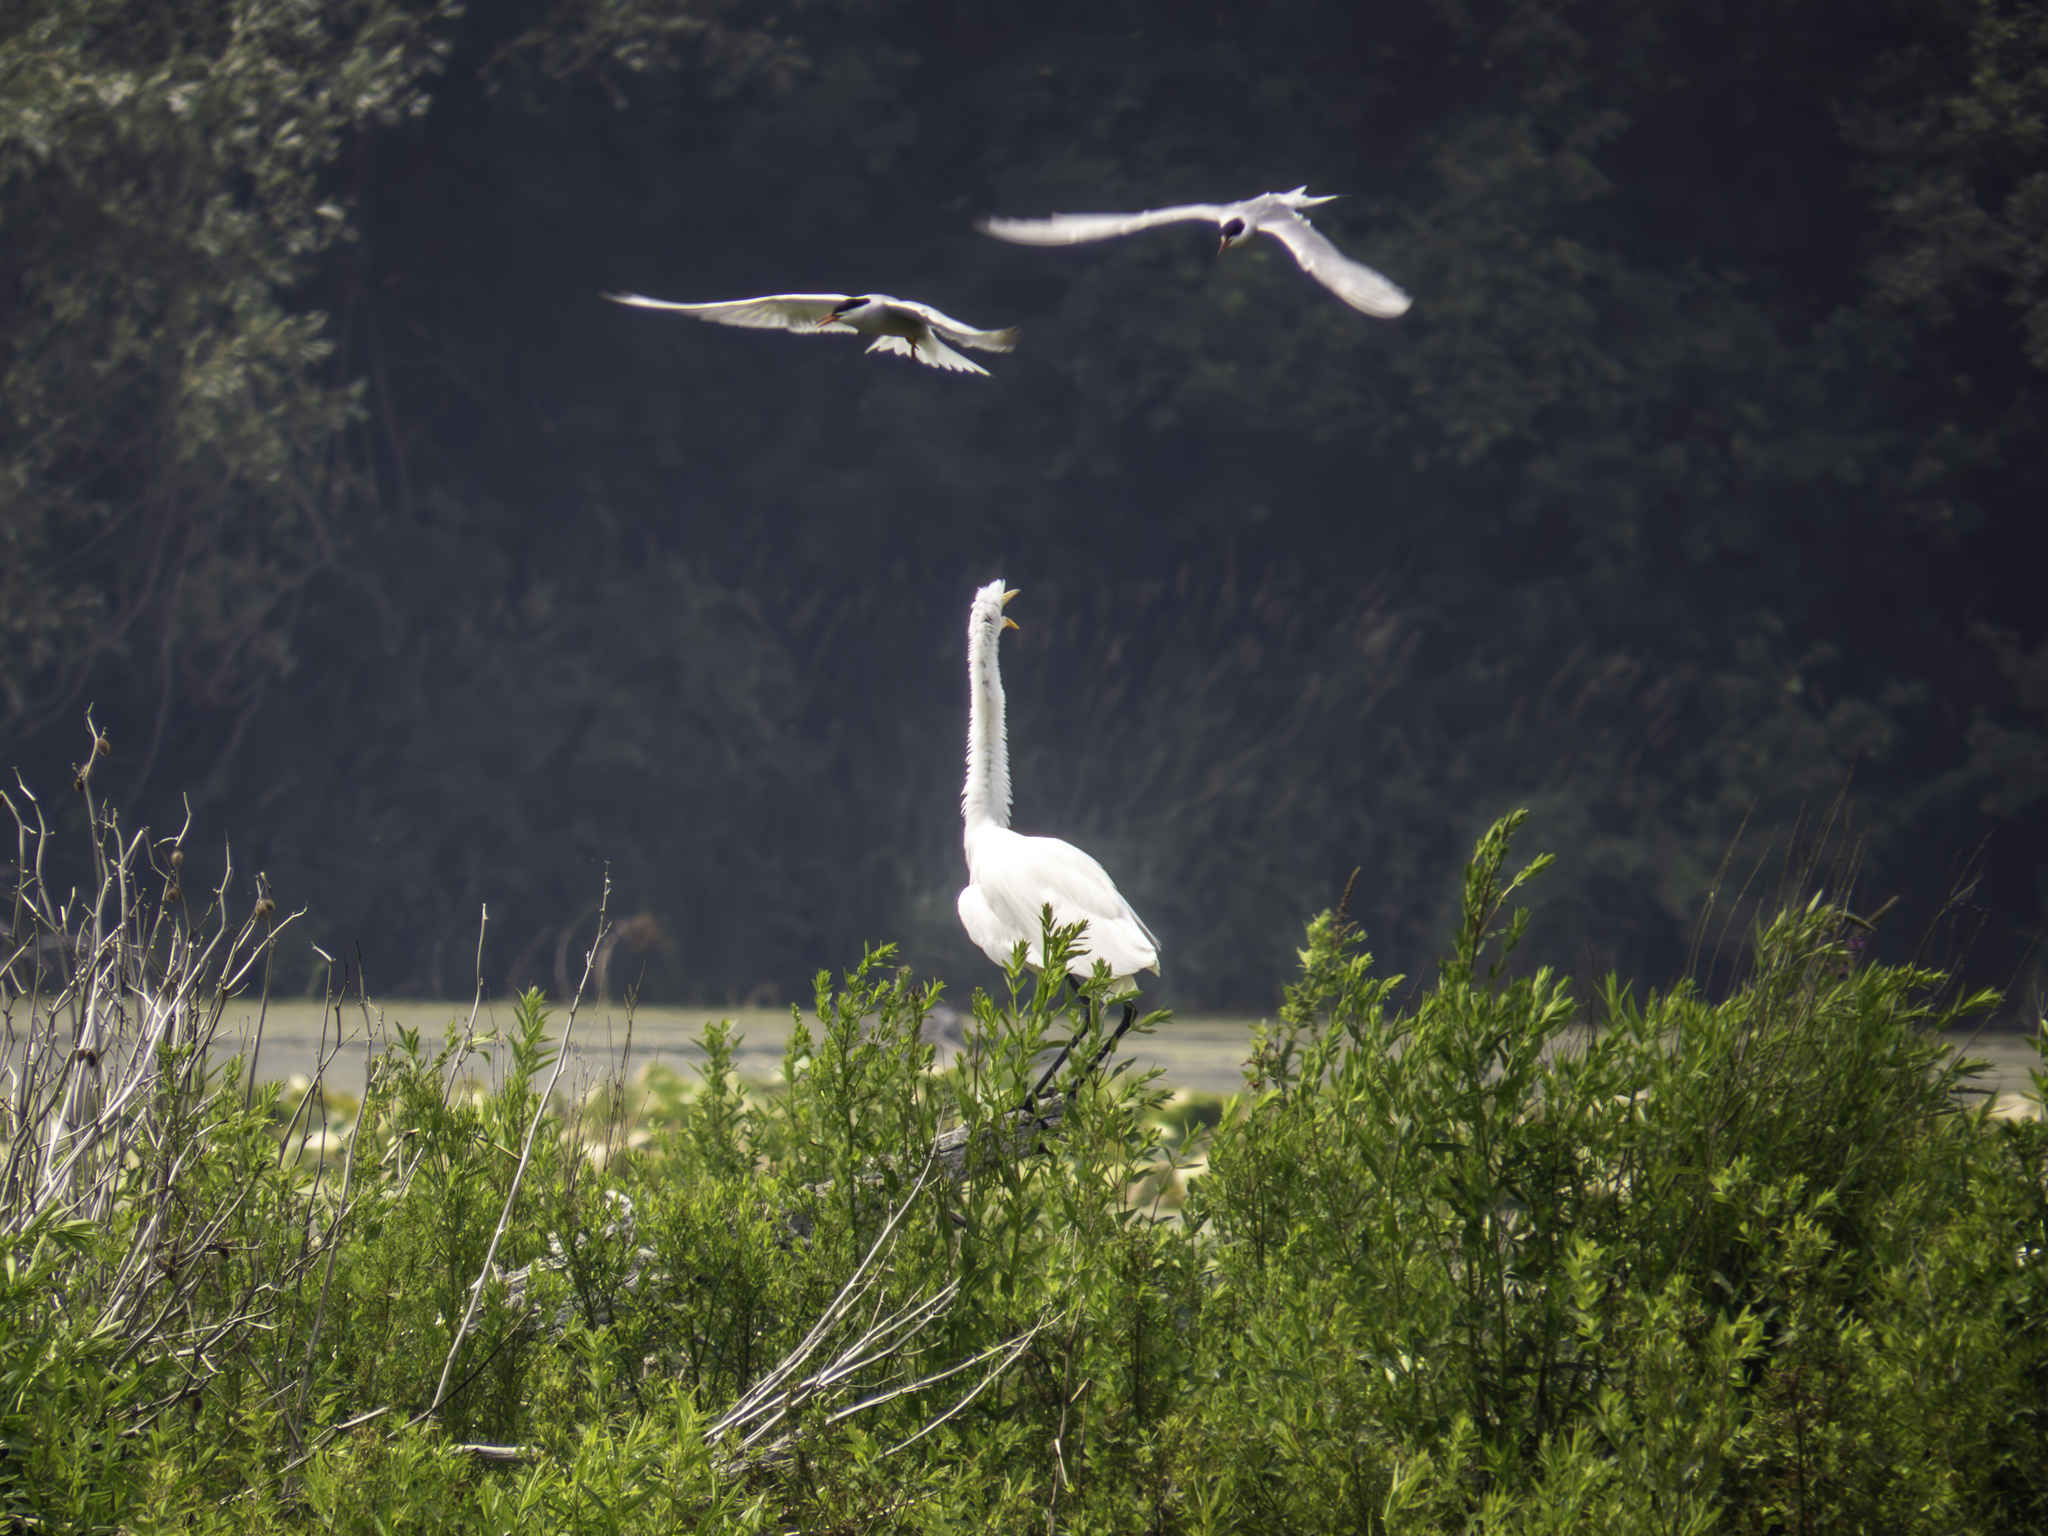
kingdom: Animalia
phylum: Chordata
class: Aves
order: Charadriiformes
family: Laridae
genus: Sterna
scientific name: Sterna hirundo
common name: Common tern
